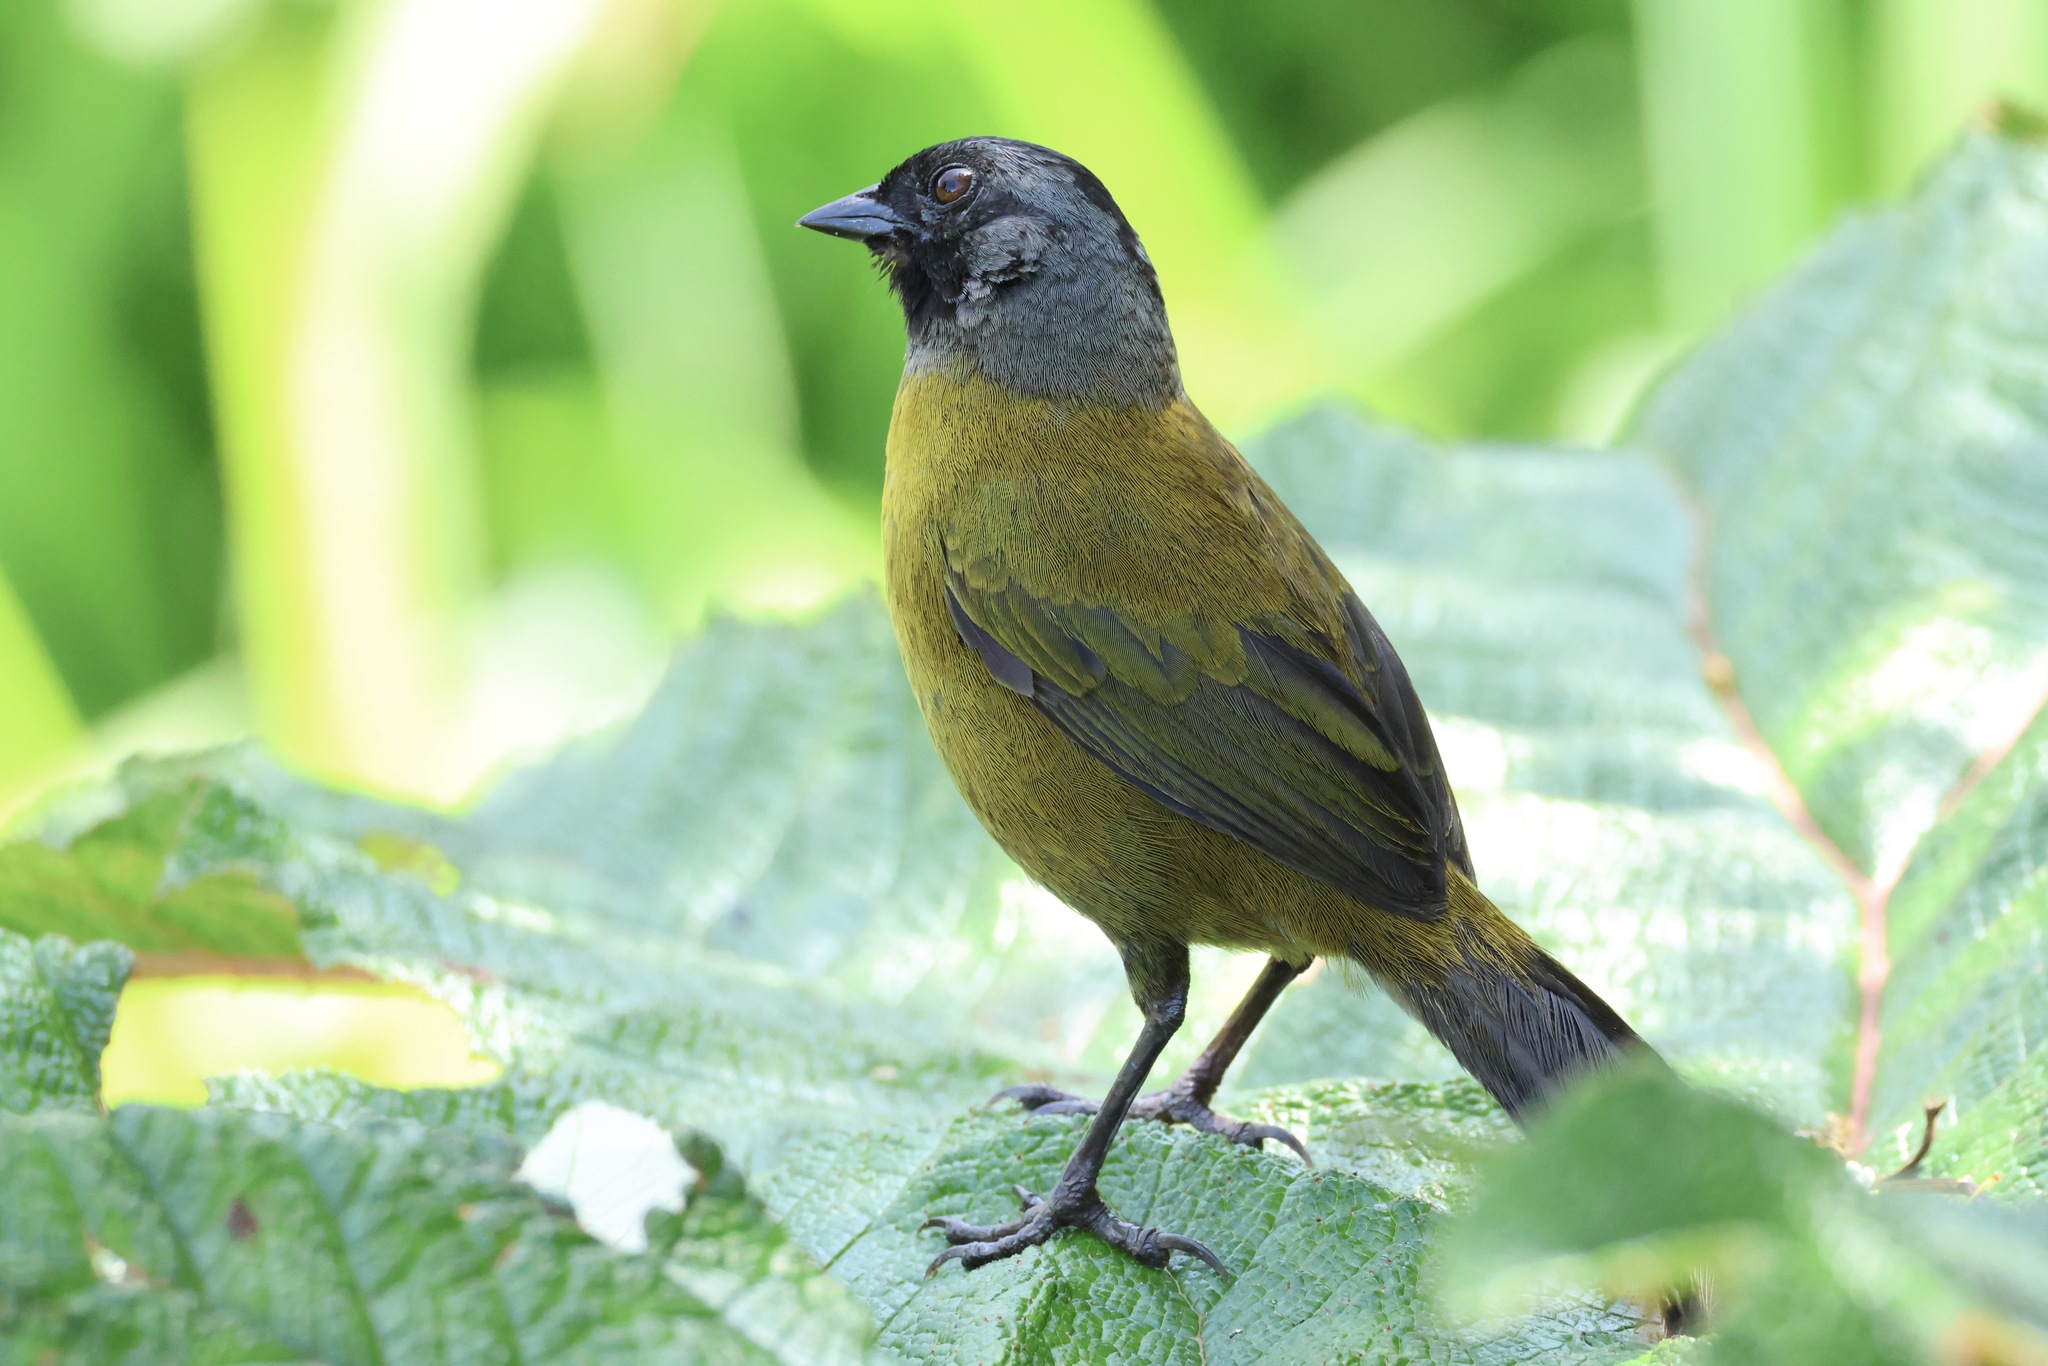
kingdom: Animalia
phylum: Chordata
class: Aves
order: Passeriformes
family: Passerellidae
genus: Pezopetes
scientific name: Pezopetes capitalis
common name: Large-footed finch
